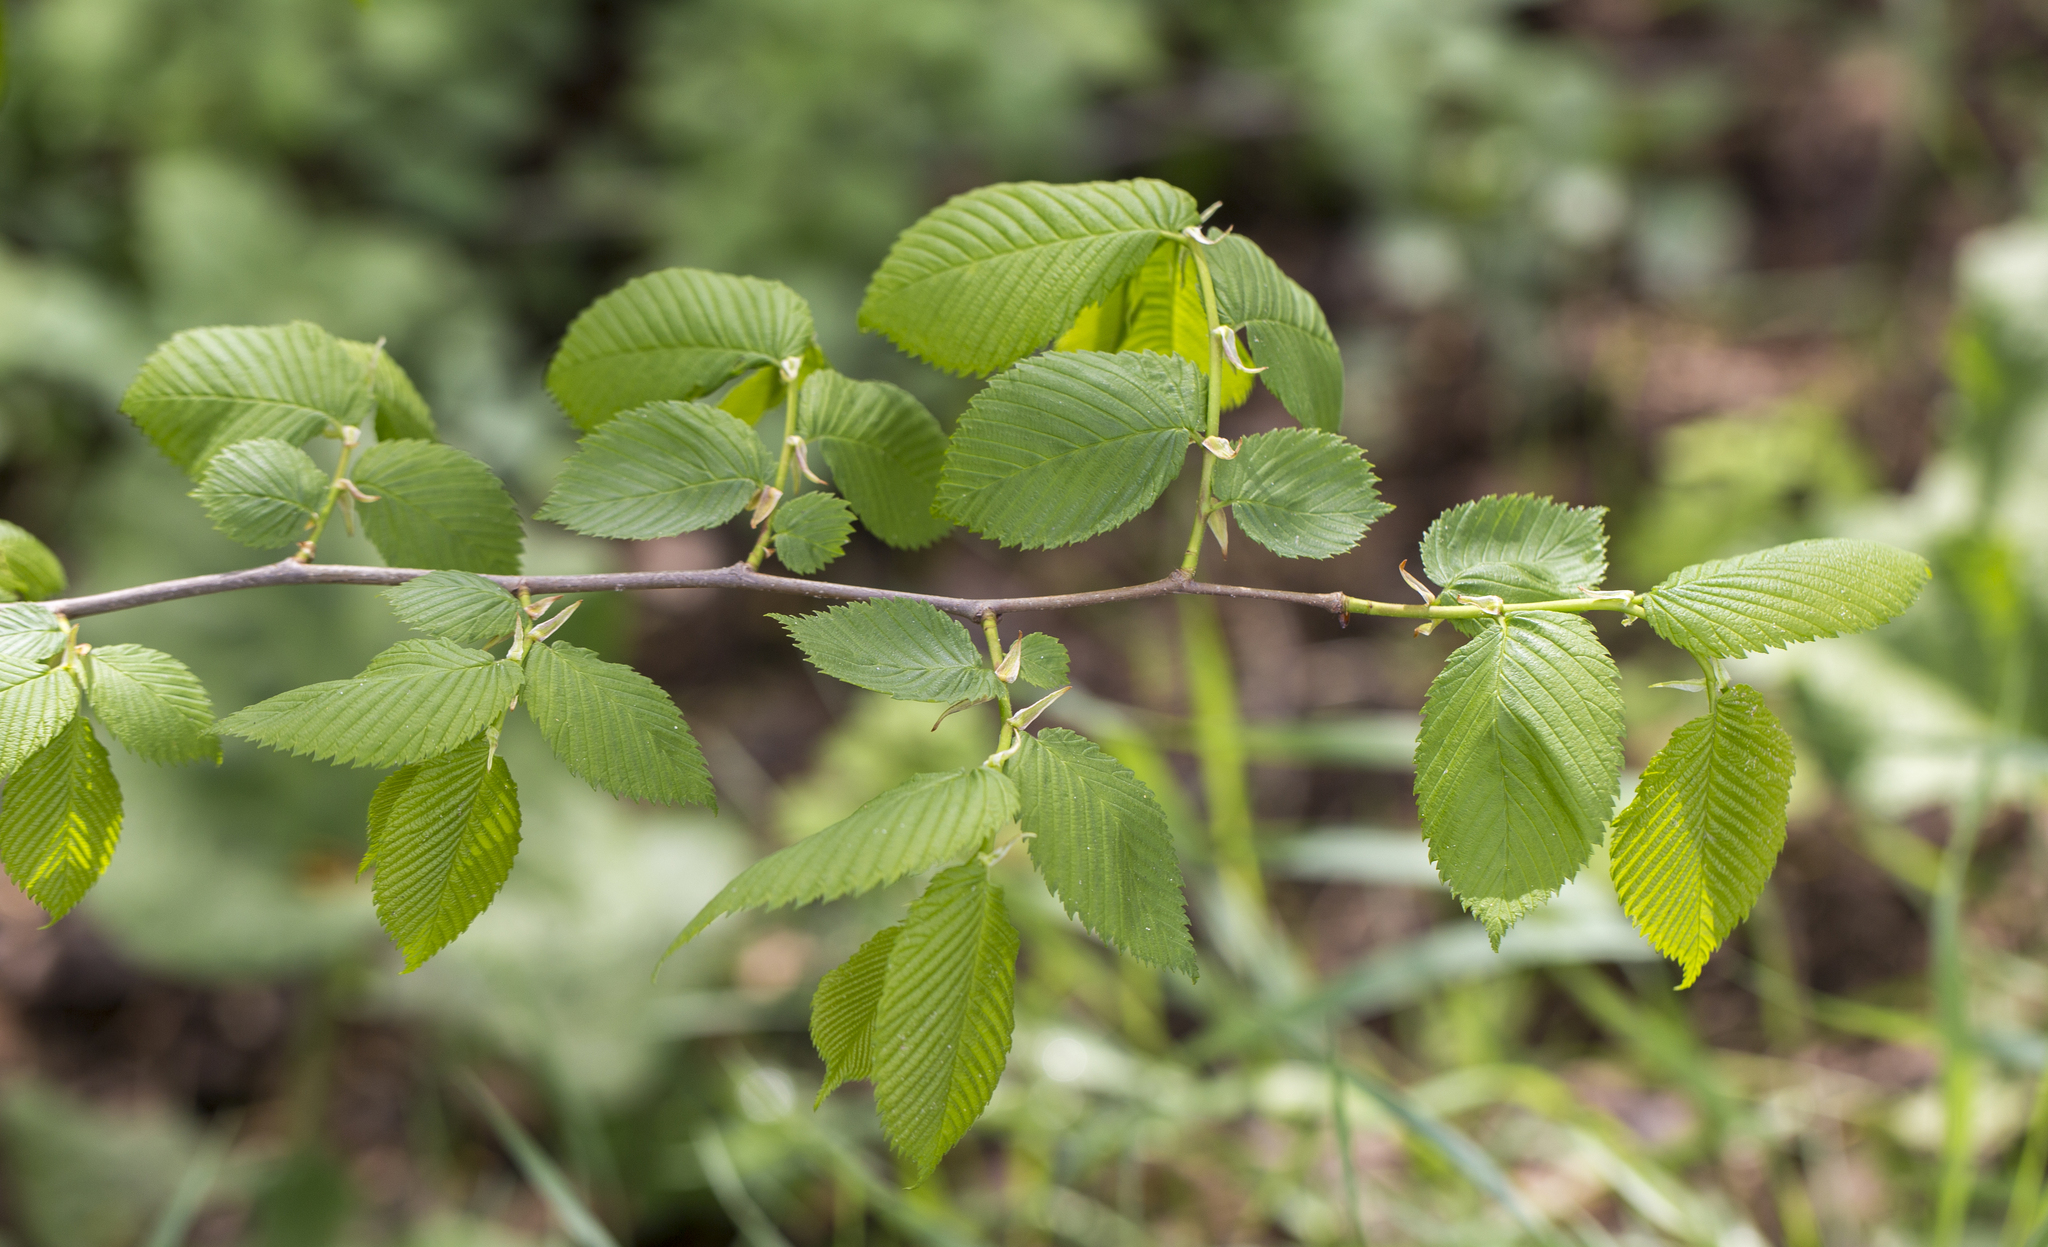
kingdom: Plantae
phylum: Tracheophyta
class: Magnoliopsida
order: Rosales
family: Ulmaceae
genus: Ulmus
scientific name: Ulmus laevis
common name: European white-elm
